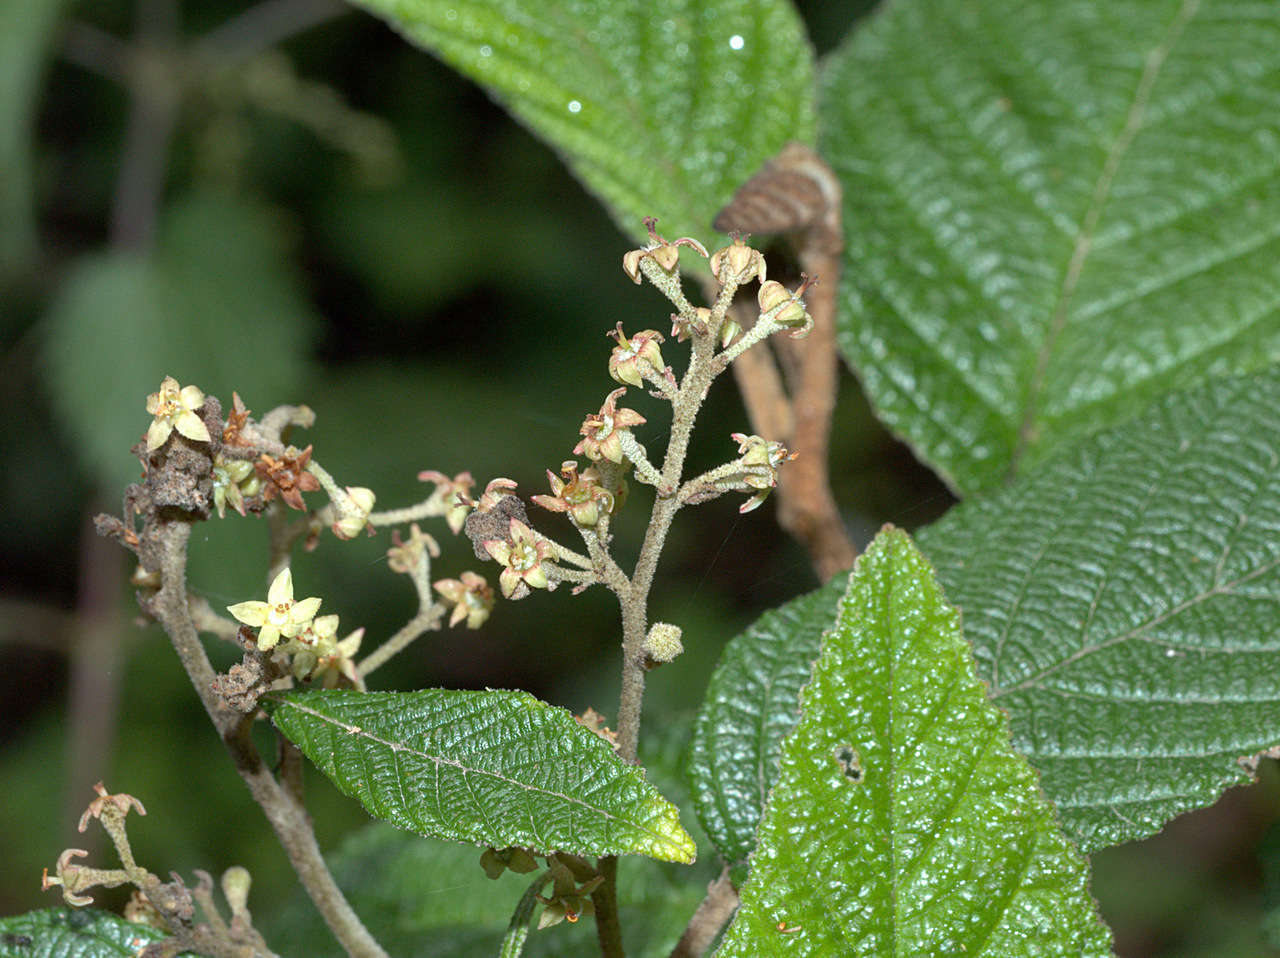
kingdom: Plantae
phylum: Tracheophyta
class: Magnoliopsida
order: Rosales
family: Rhamnaceae
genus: Pomaderris
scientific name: Pomaderris aspera
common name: Hazel pomaderris
